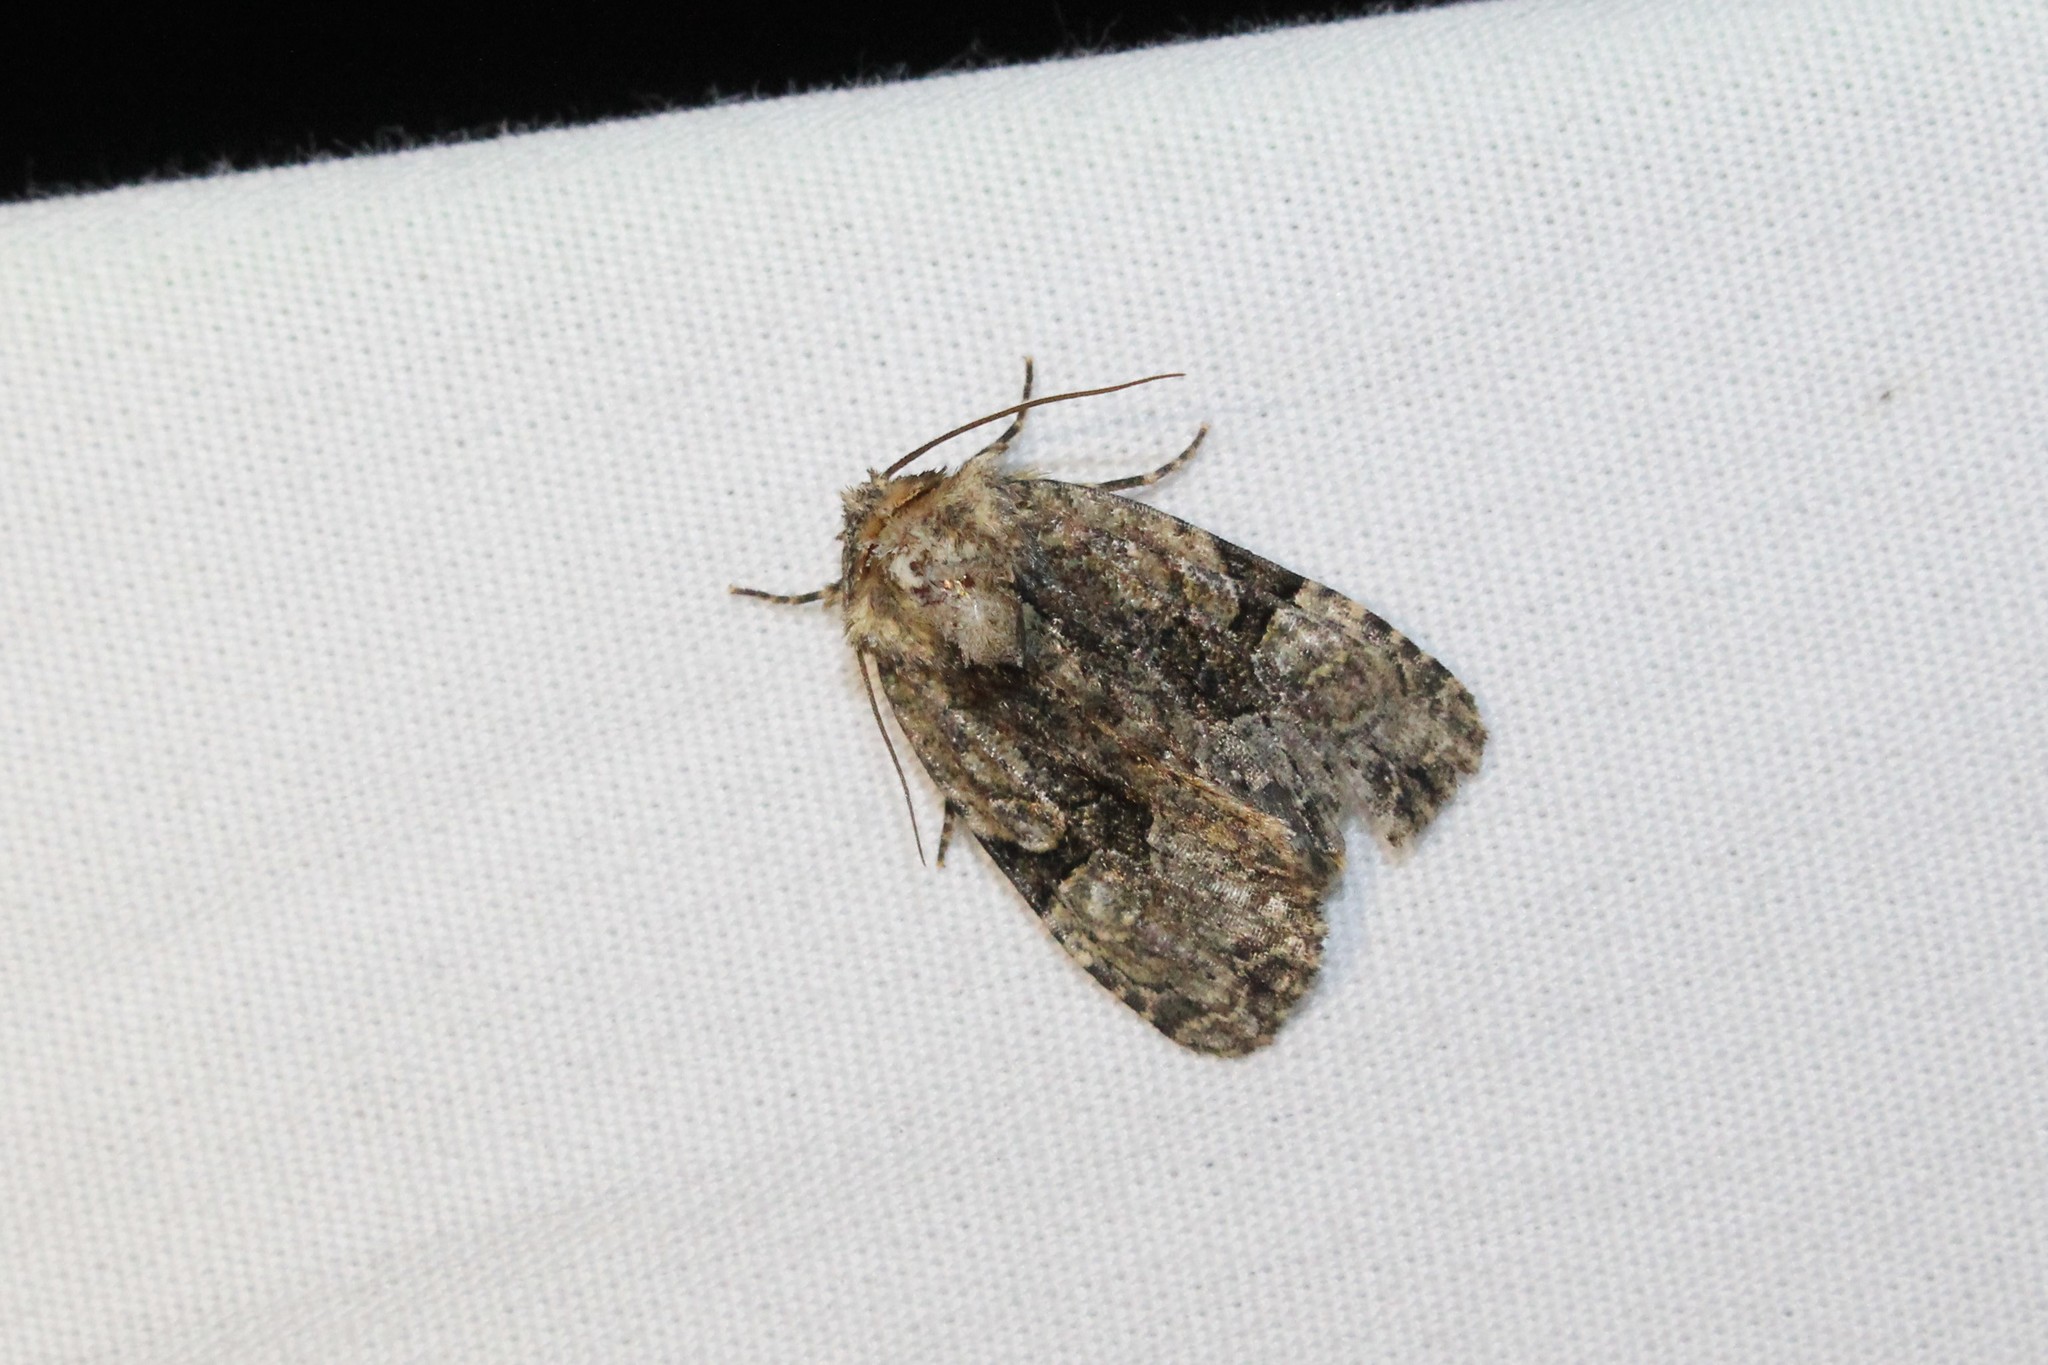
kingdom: Animalia
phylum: Arthropoda
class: Insecta
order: Lepidoptera
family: Noctuidae
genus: Oligia
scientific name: Oligia modica
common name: Black-banded brocade
